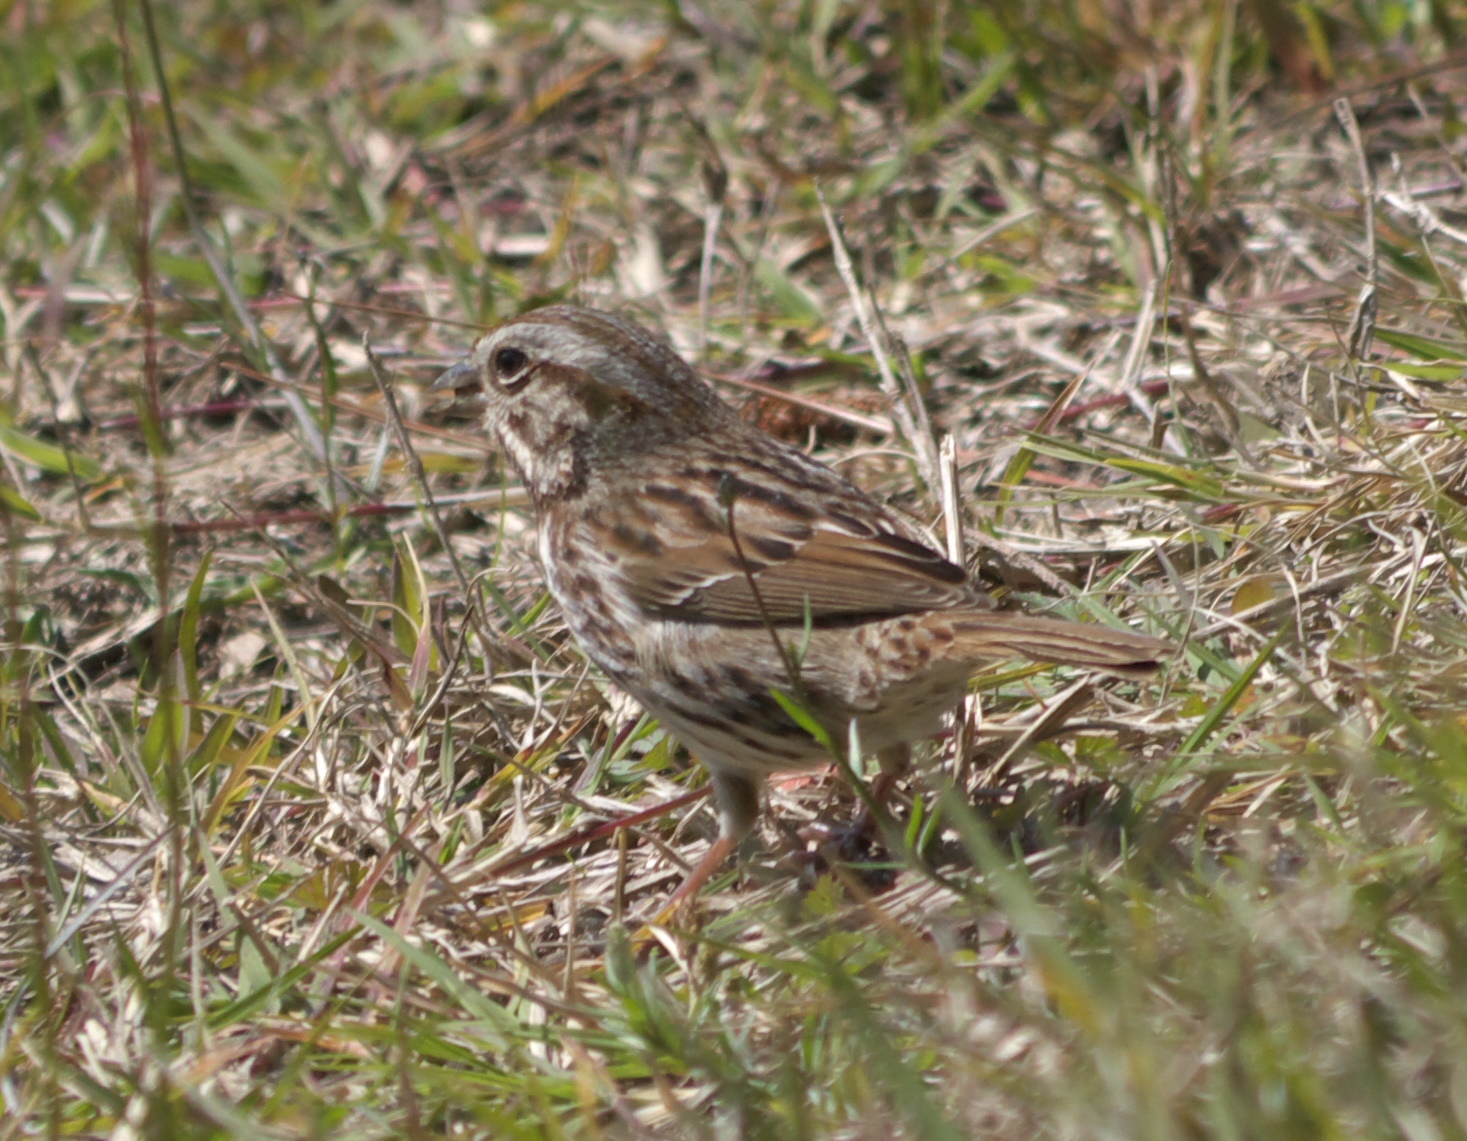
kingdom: Animalia
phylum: Chordata
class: Aves
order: Passeriformes
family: Passerellidae
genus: Melospiza
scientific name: Melospiza melodia
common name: Song sparrow
